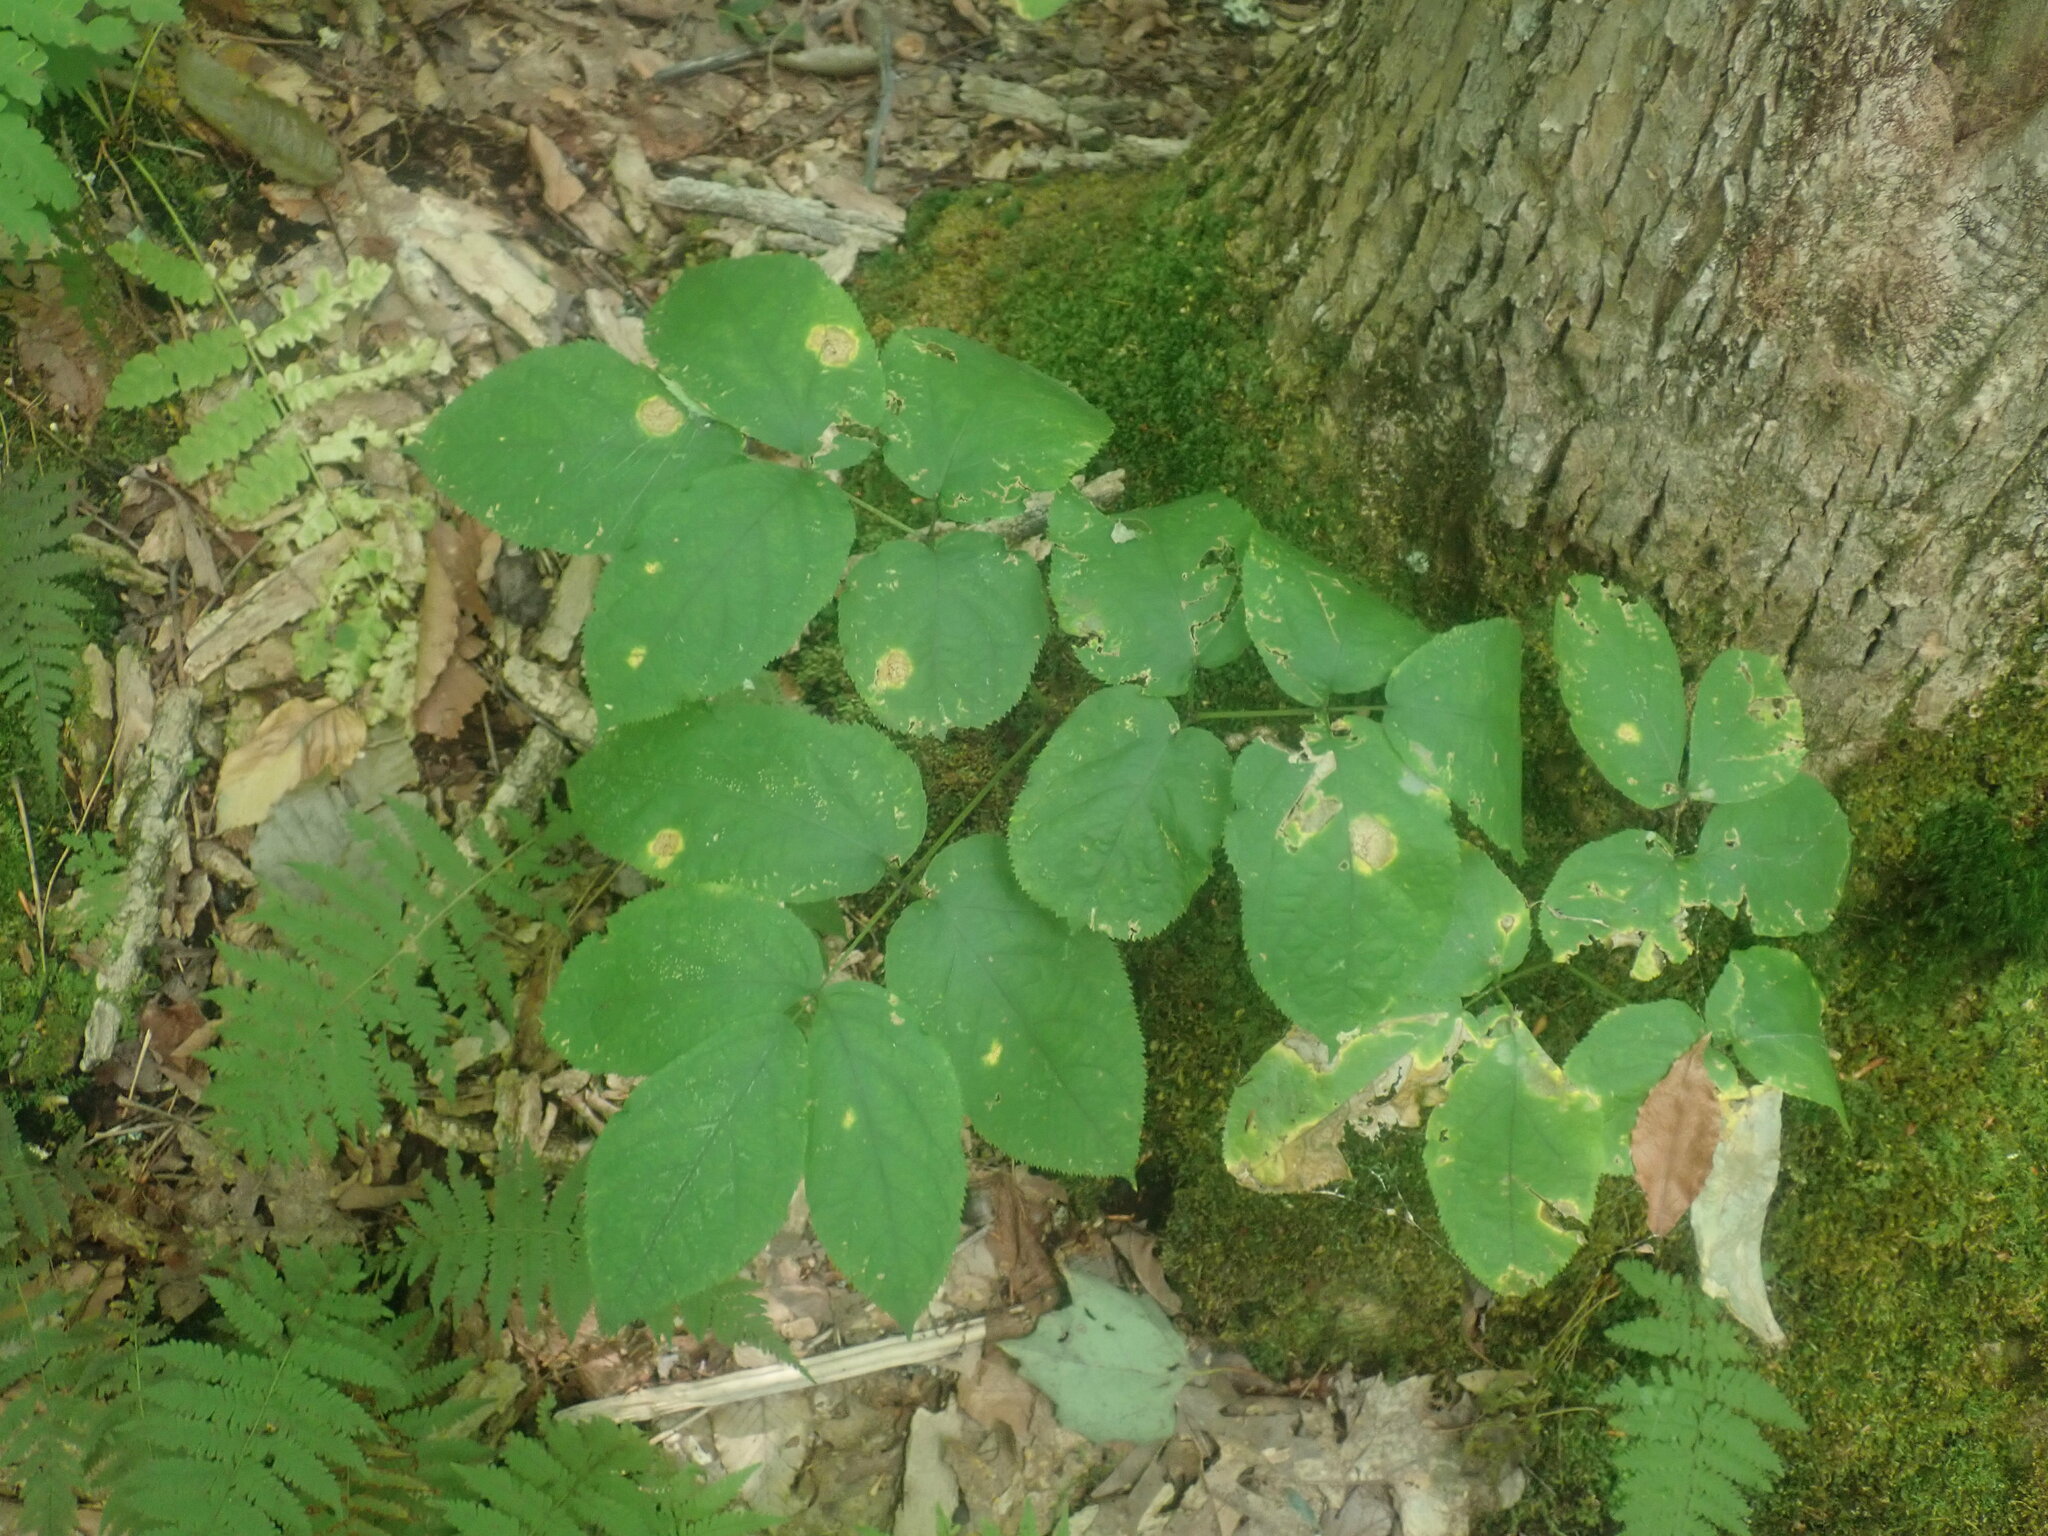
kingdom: Plantae
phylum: Tracheophyta
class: Magnoliopsida
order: Apiales
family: Araliaceae
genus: Aralia
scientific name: Aralia nudicaulis
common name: Wild sarsaparilla
